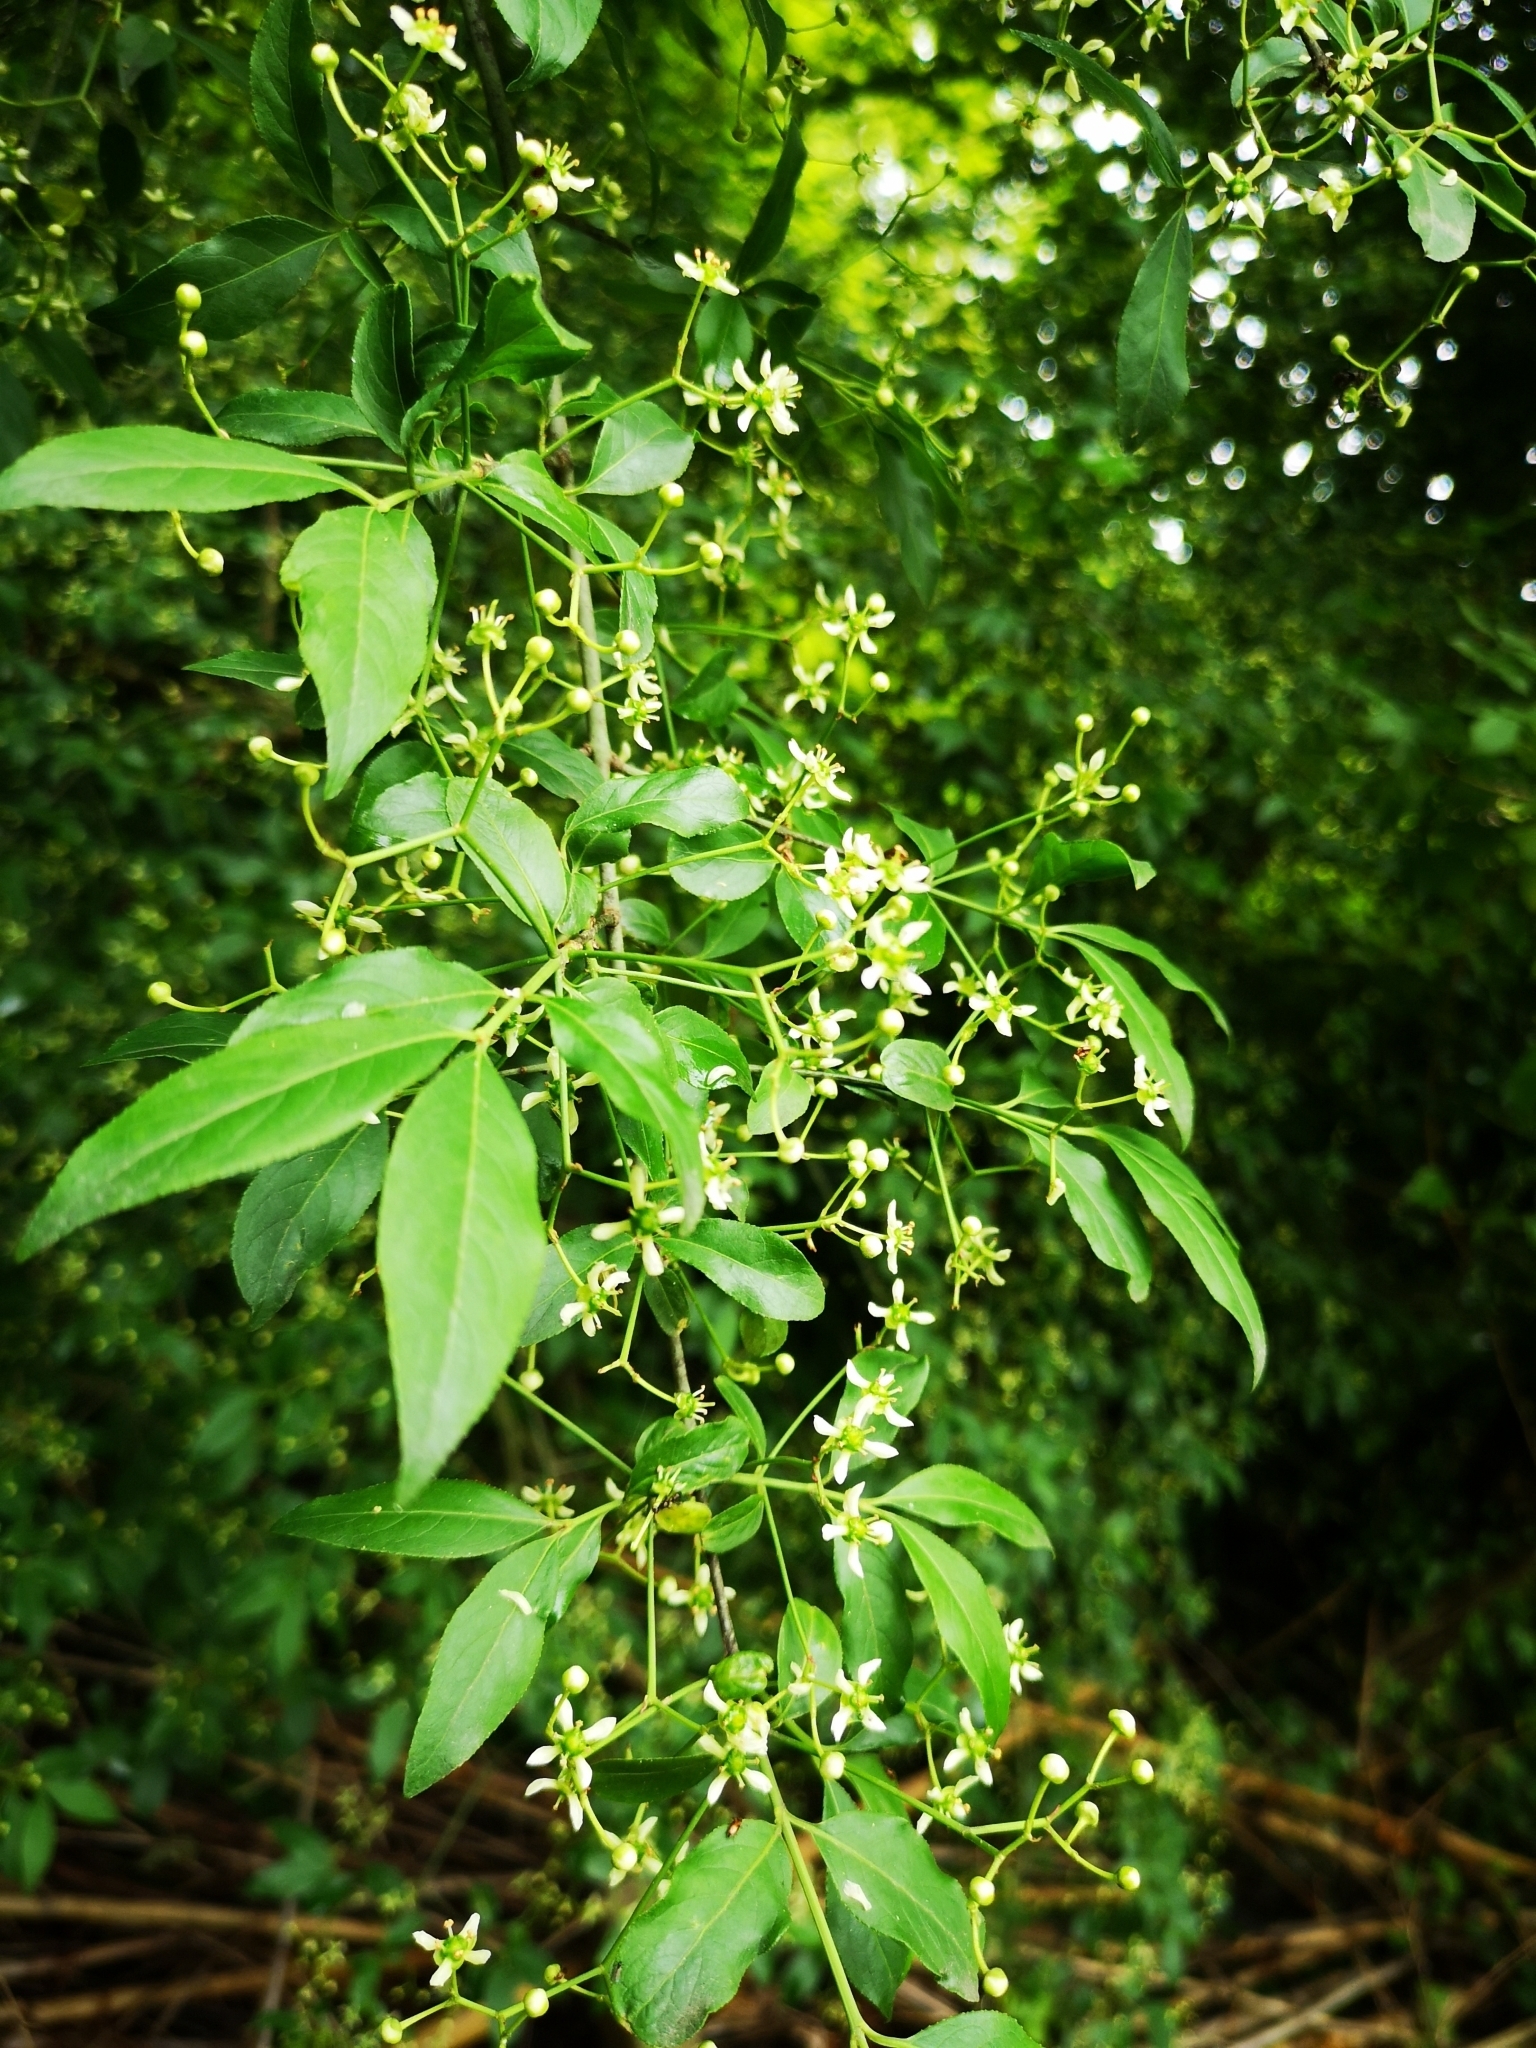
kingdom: Plantae
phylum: Tracheophyta
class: Magnoliopsida
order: Celastrales
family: Celastraceae
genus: Euonymus
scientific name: Euonymus europaeus
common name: Spindle
